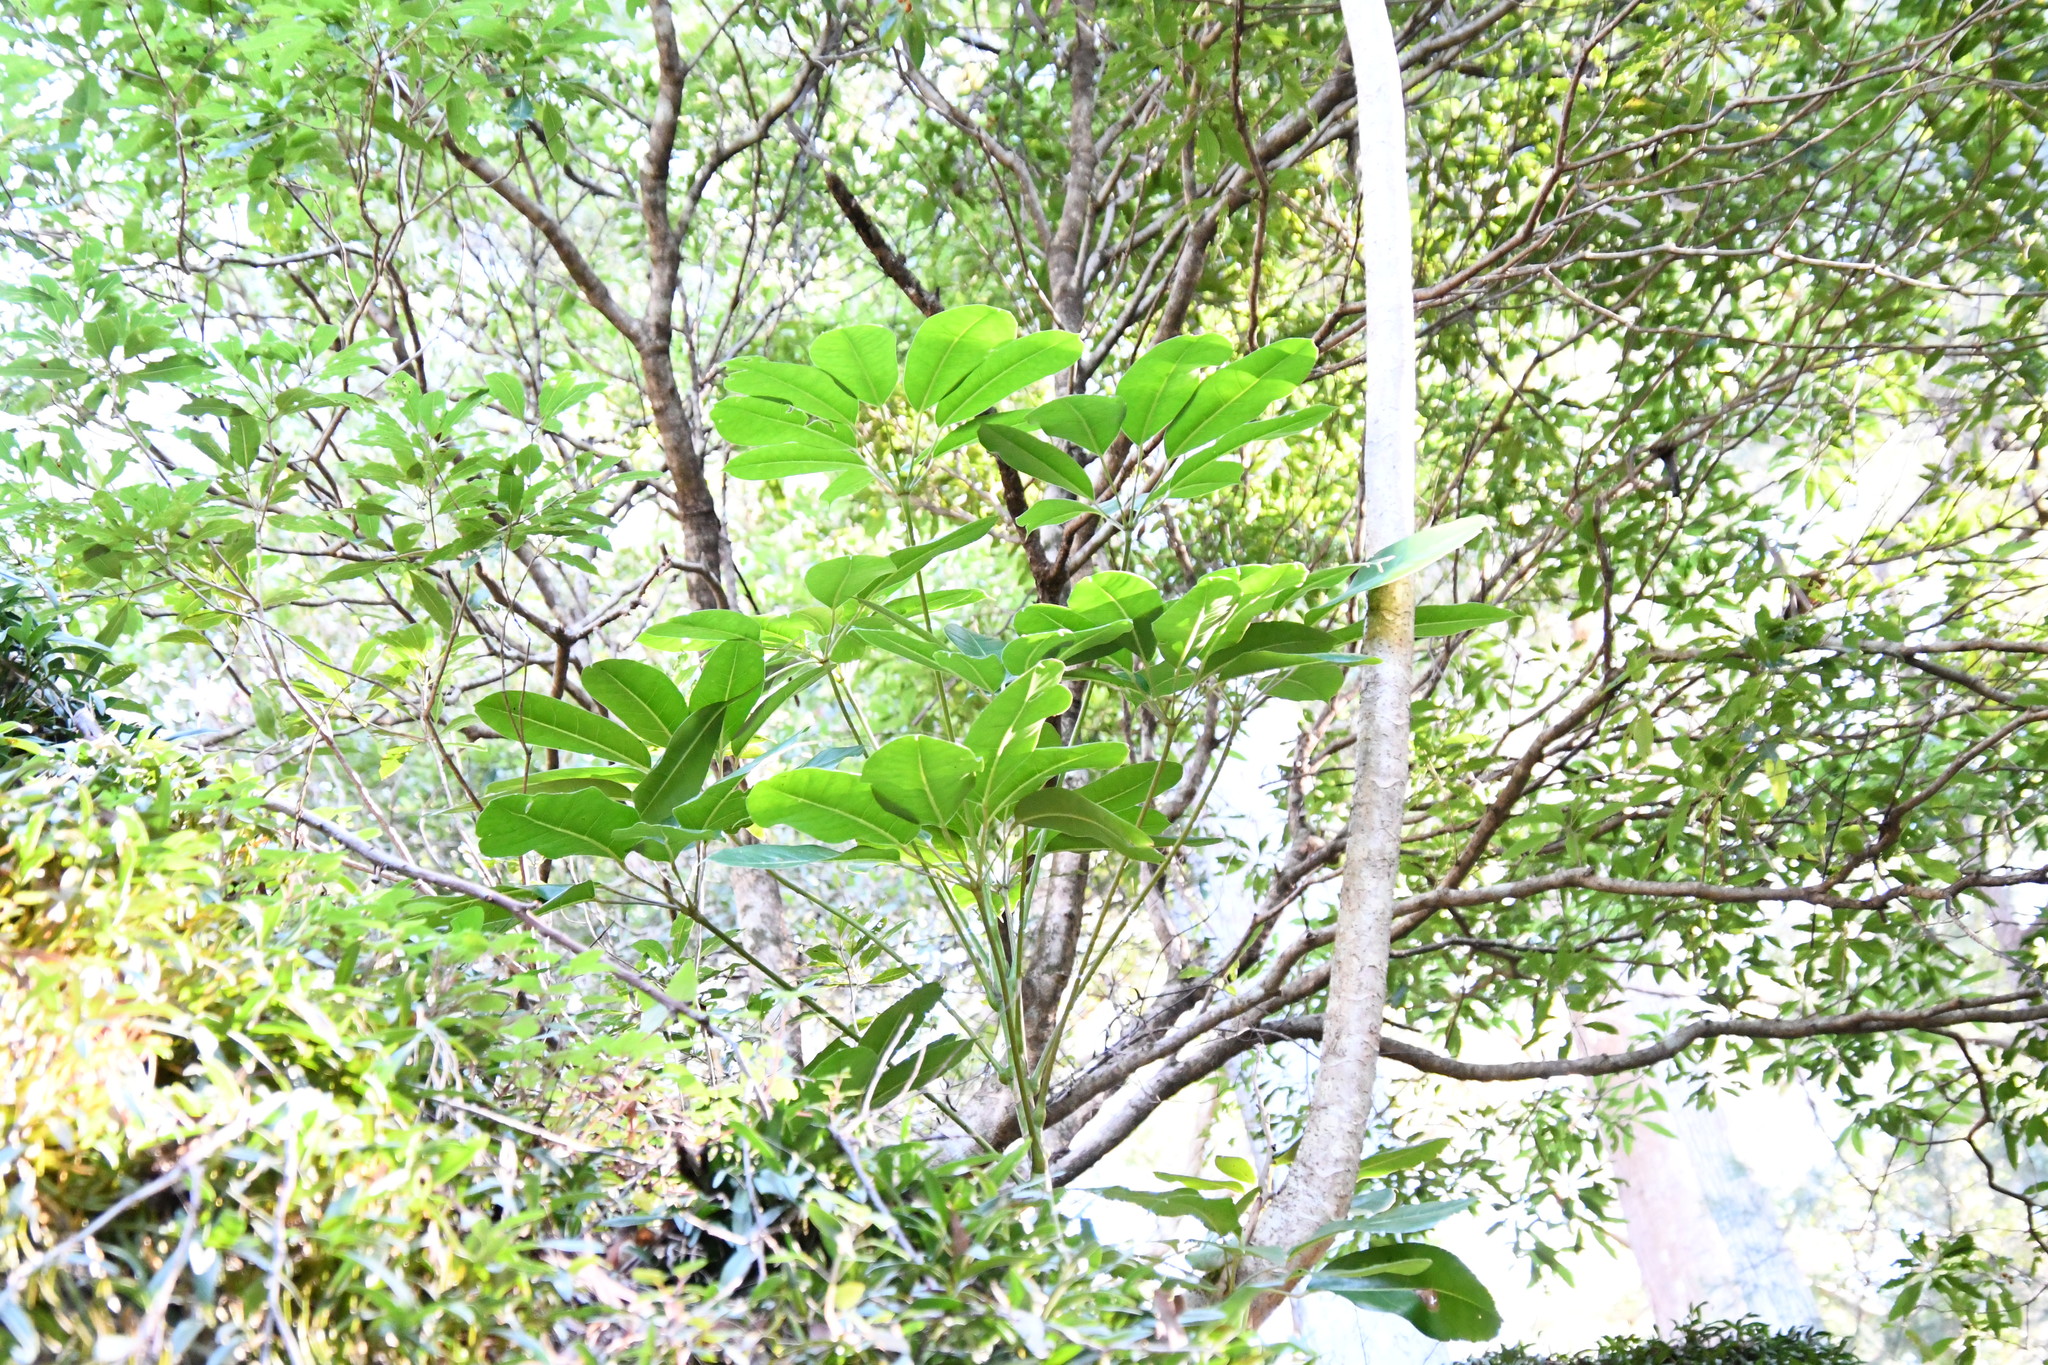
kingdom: Plantae
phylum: Tracheophyta
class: Magnoliopsida
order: Apiales
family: Araliaceae
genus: Heptapleurum
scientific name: Heptapleurum actinophyllum
